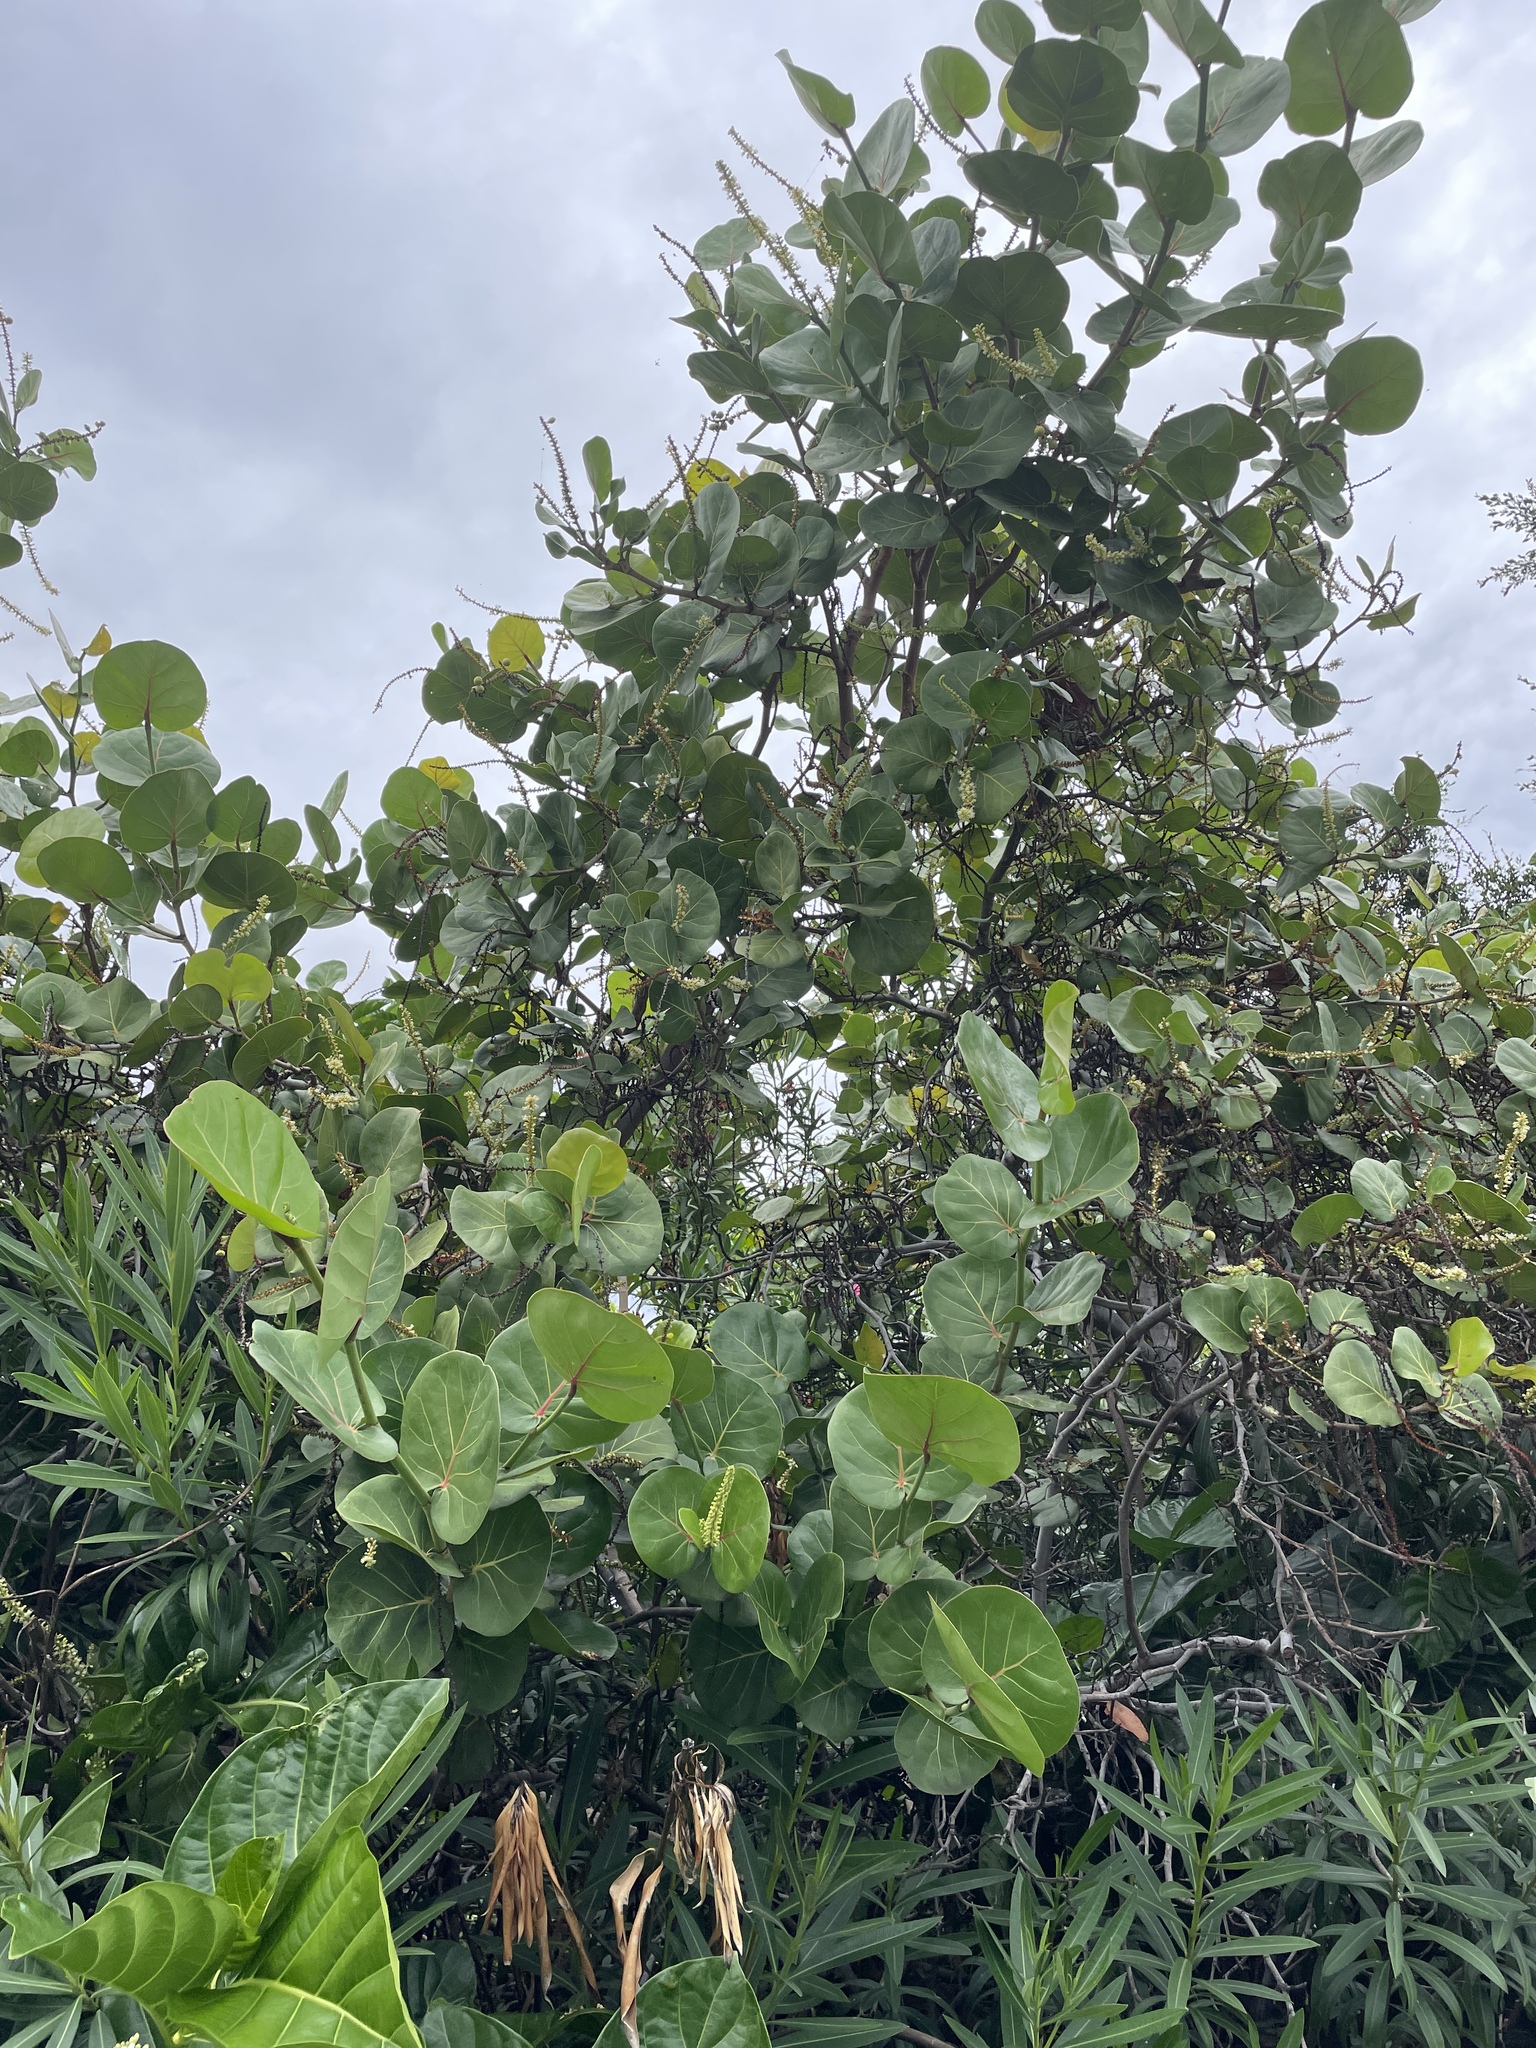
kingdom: Plantae
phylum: Tracheophyta
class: Magnoliopsida
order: Caryophyllales
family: Polygonaceae
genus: Coccoloba
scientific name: Coccoloba uvifera
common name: Seagrape
